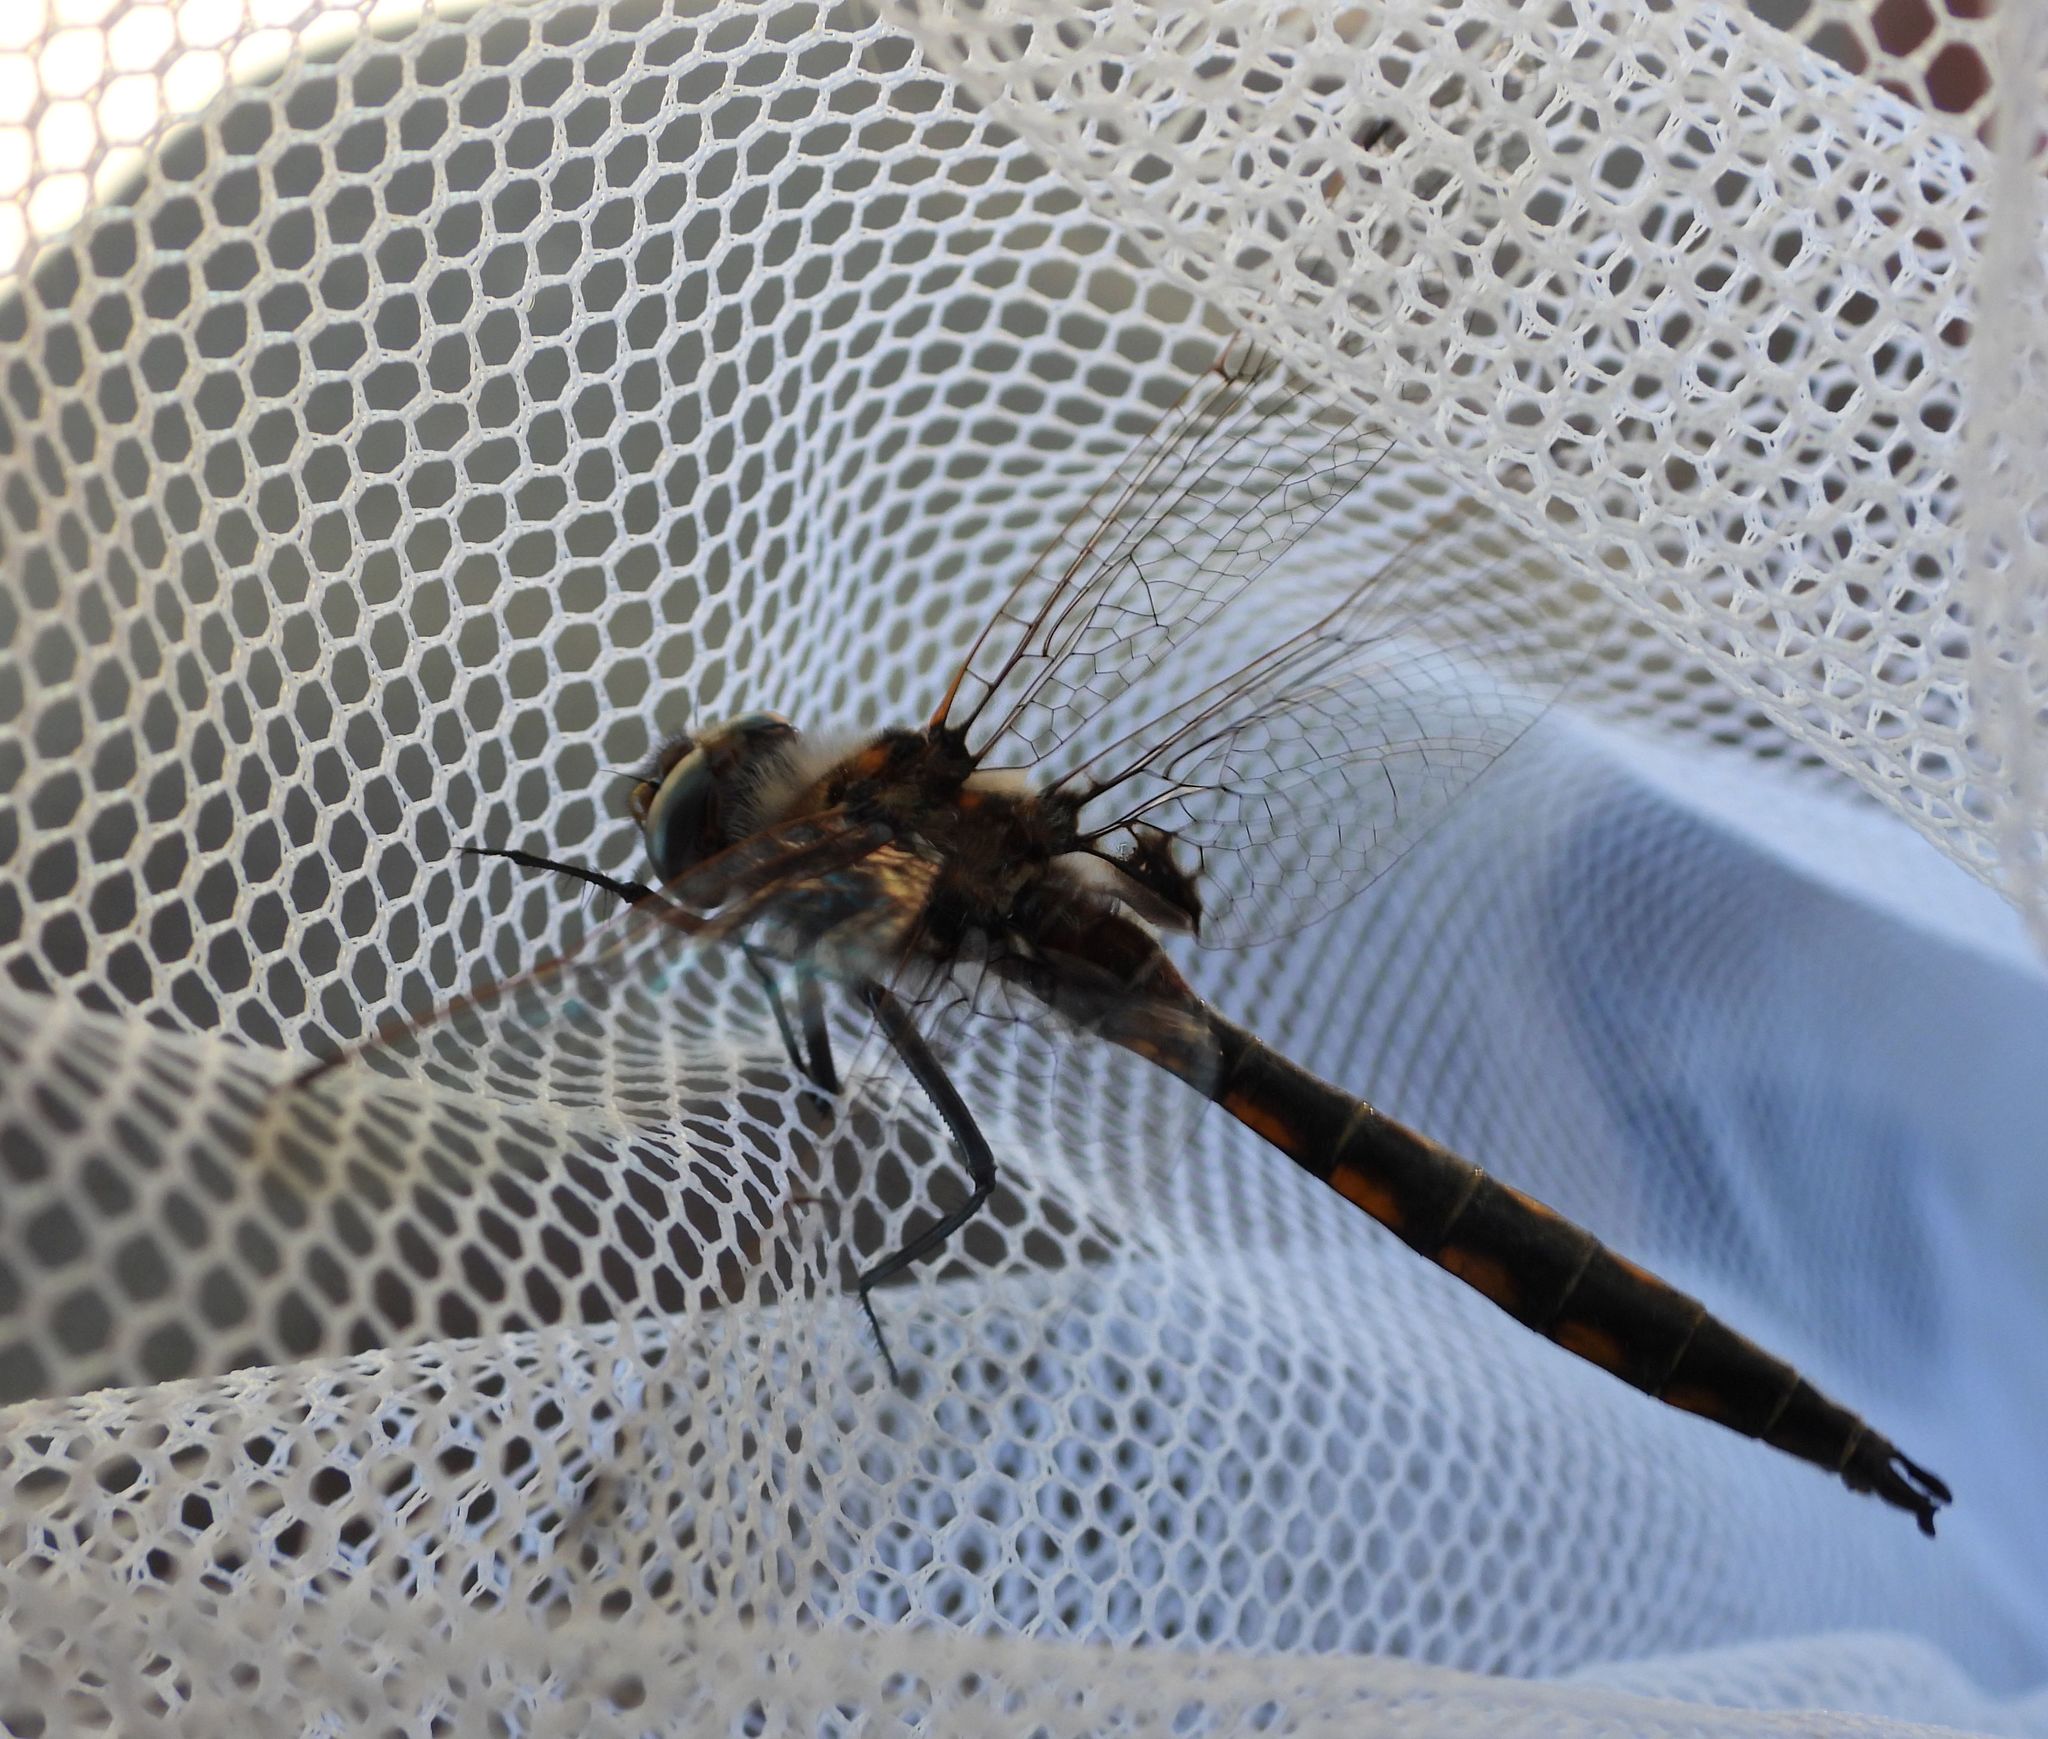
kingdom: Animalia
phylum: Arthropoda
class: Insecta
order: Odonata
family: Corduliidae
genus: Epitheca
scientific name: Epitheca canis
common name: Beaverpond baskettail
